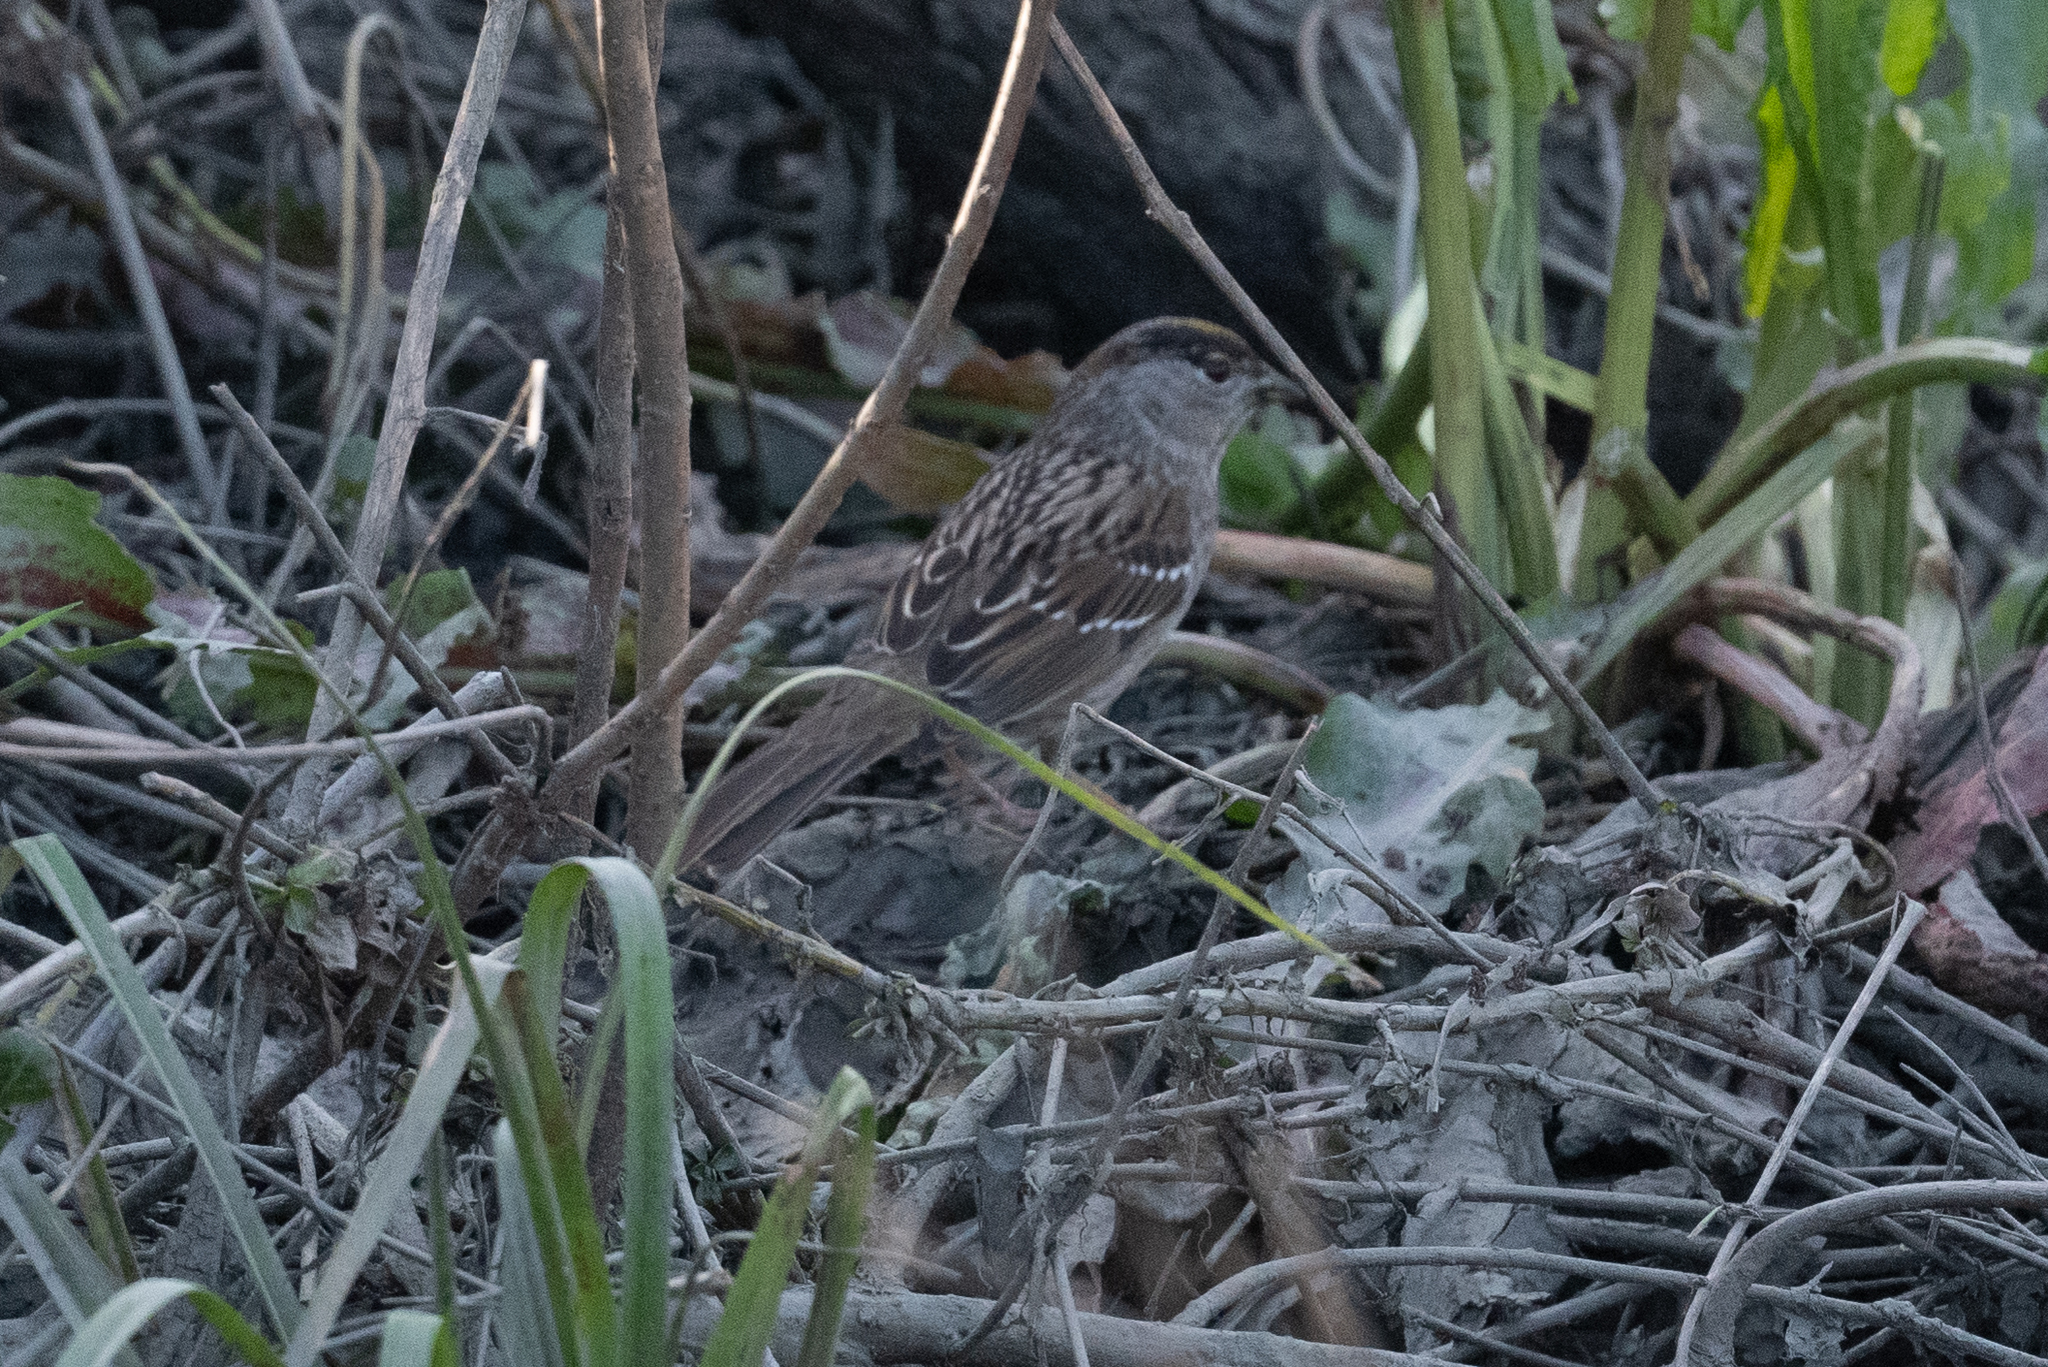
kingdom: Animalia
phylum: Chordata
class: Aves
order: Passeriformes
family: Passerellidae
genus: Zonotrichia
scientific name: Zonotrichia atricapilla
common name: Golden-crowned sparrow
